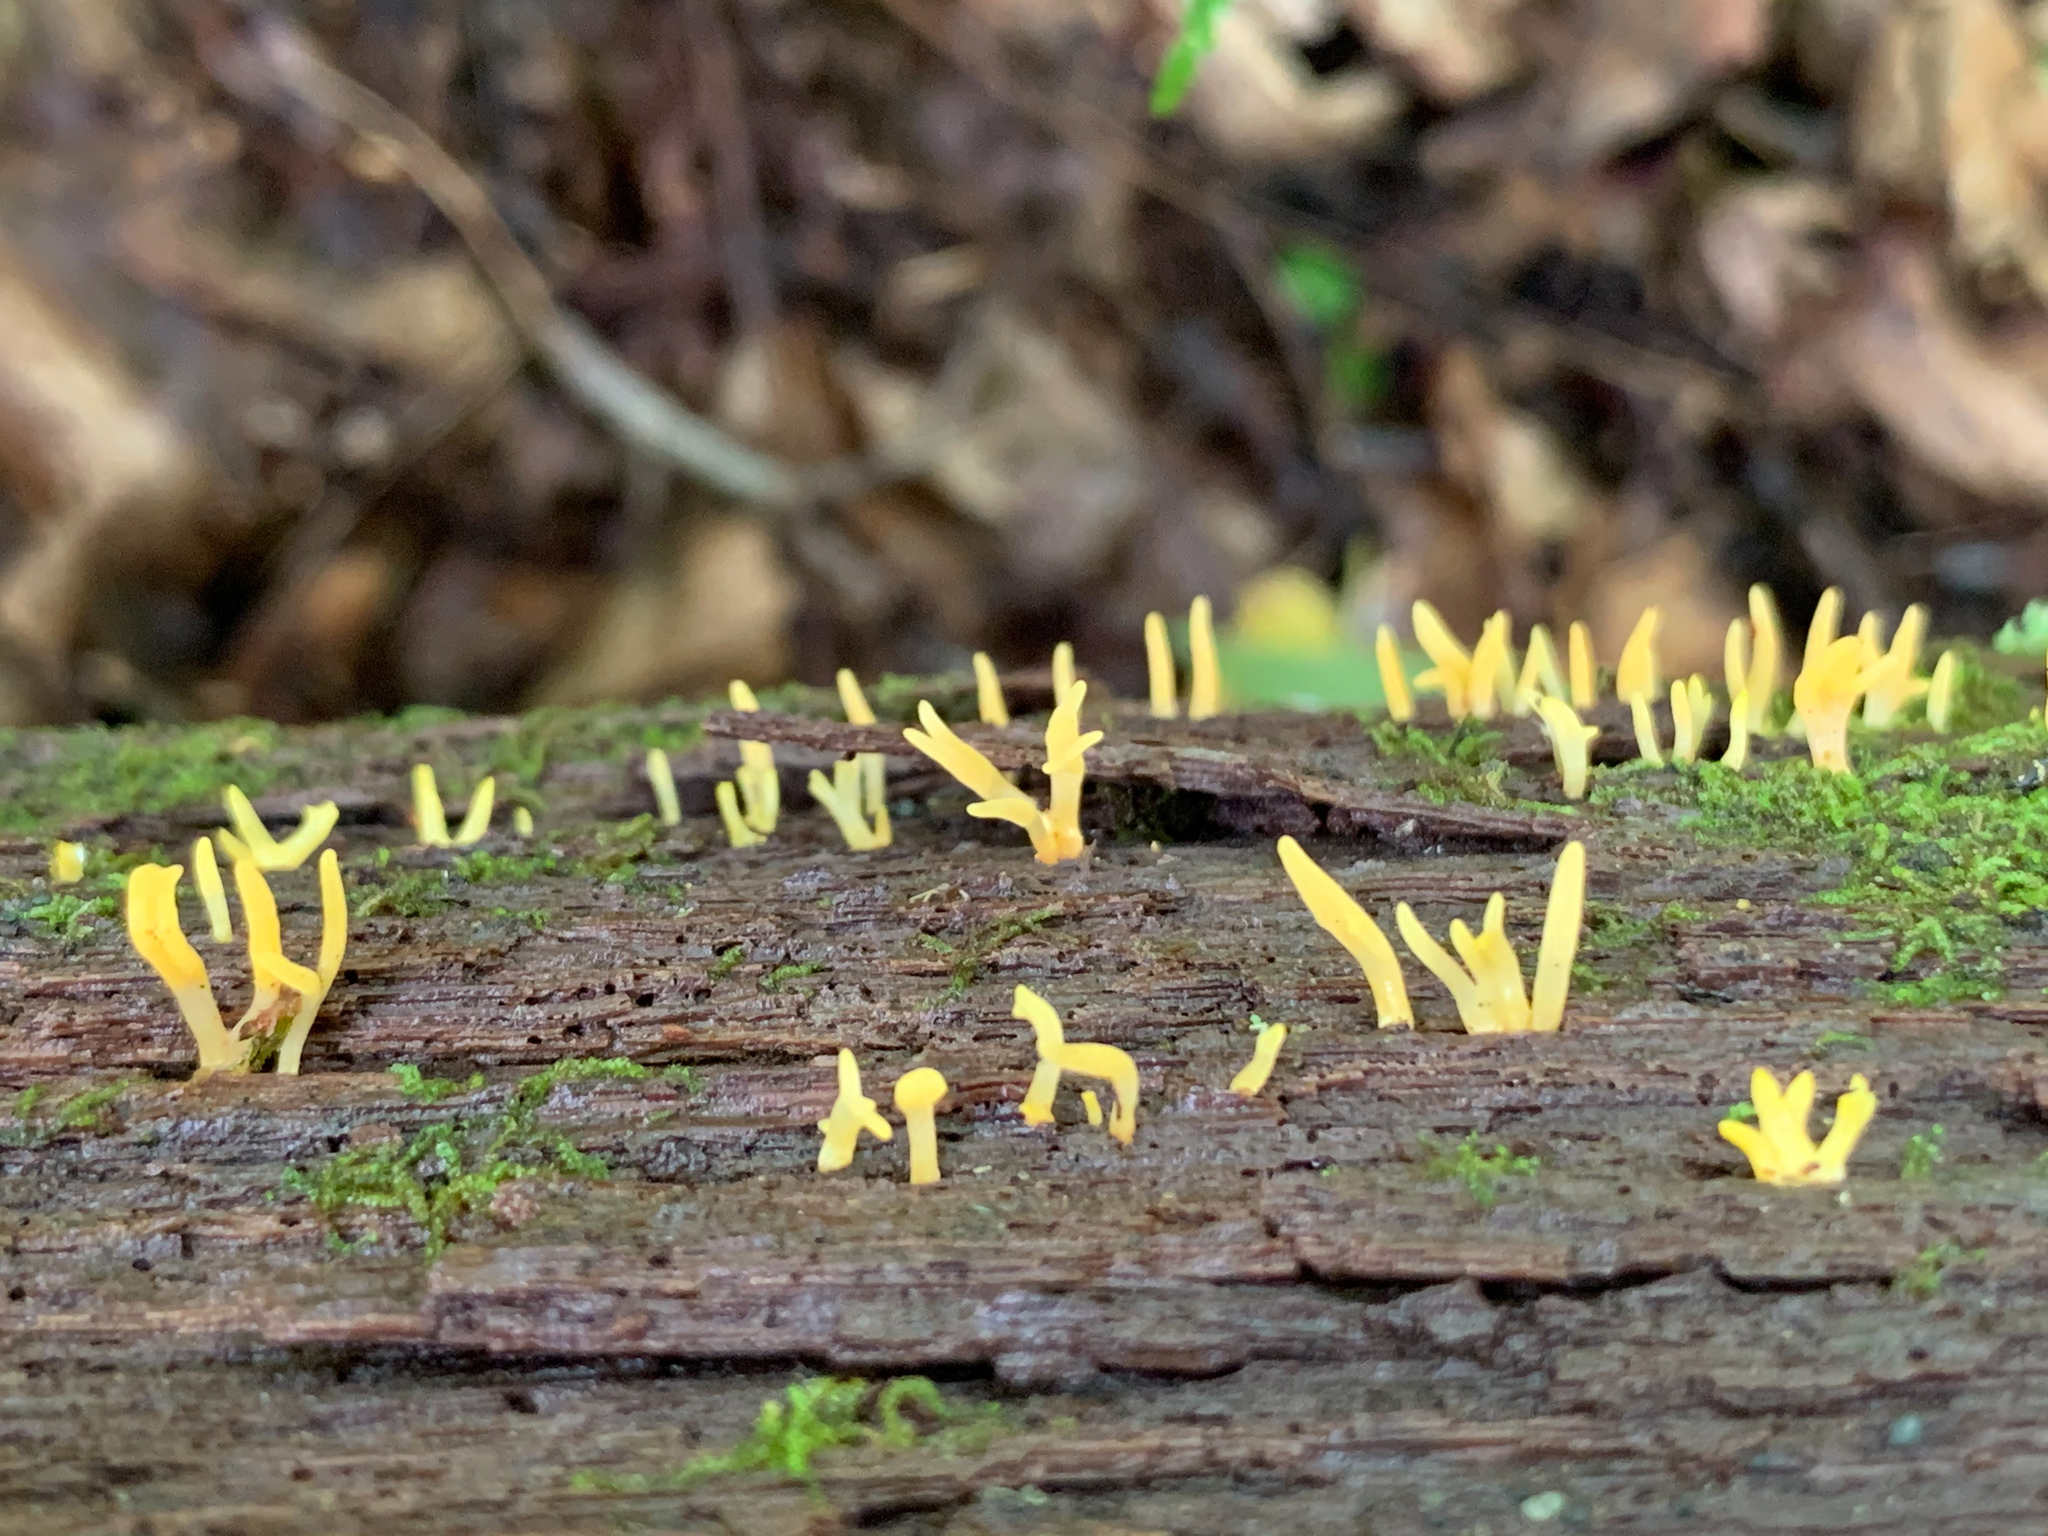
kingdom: Fungi
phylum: Basidiomycota
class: Dacrymycetes
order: Dacrymycetales
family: Dacrymycetaceae
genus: Calocera
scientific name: Calocera cornea
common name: Small stagshorn
